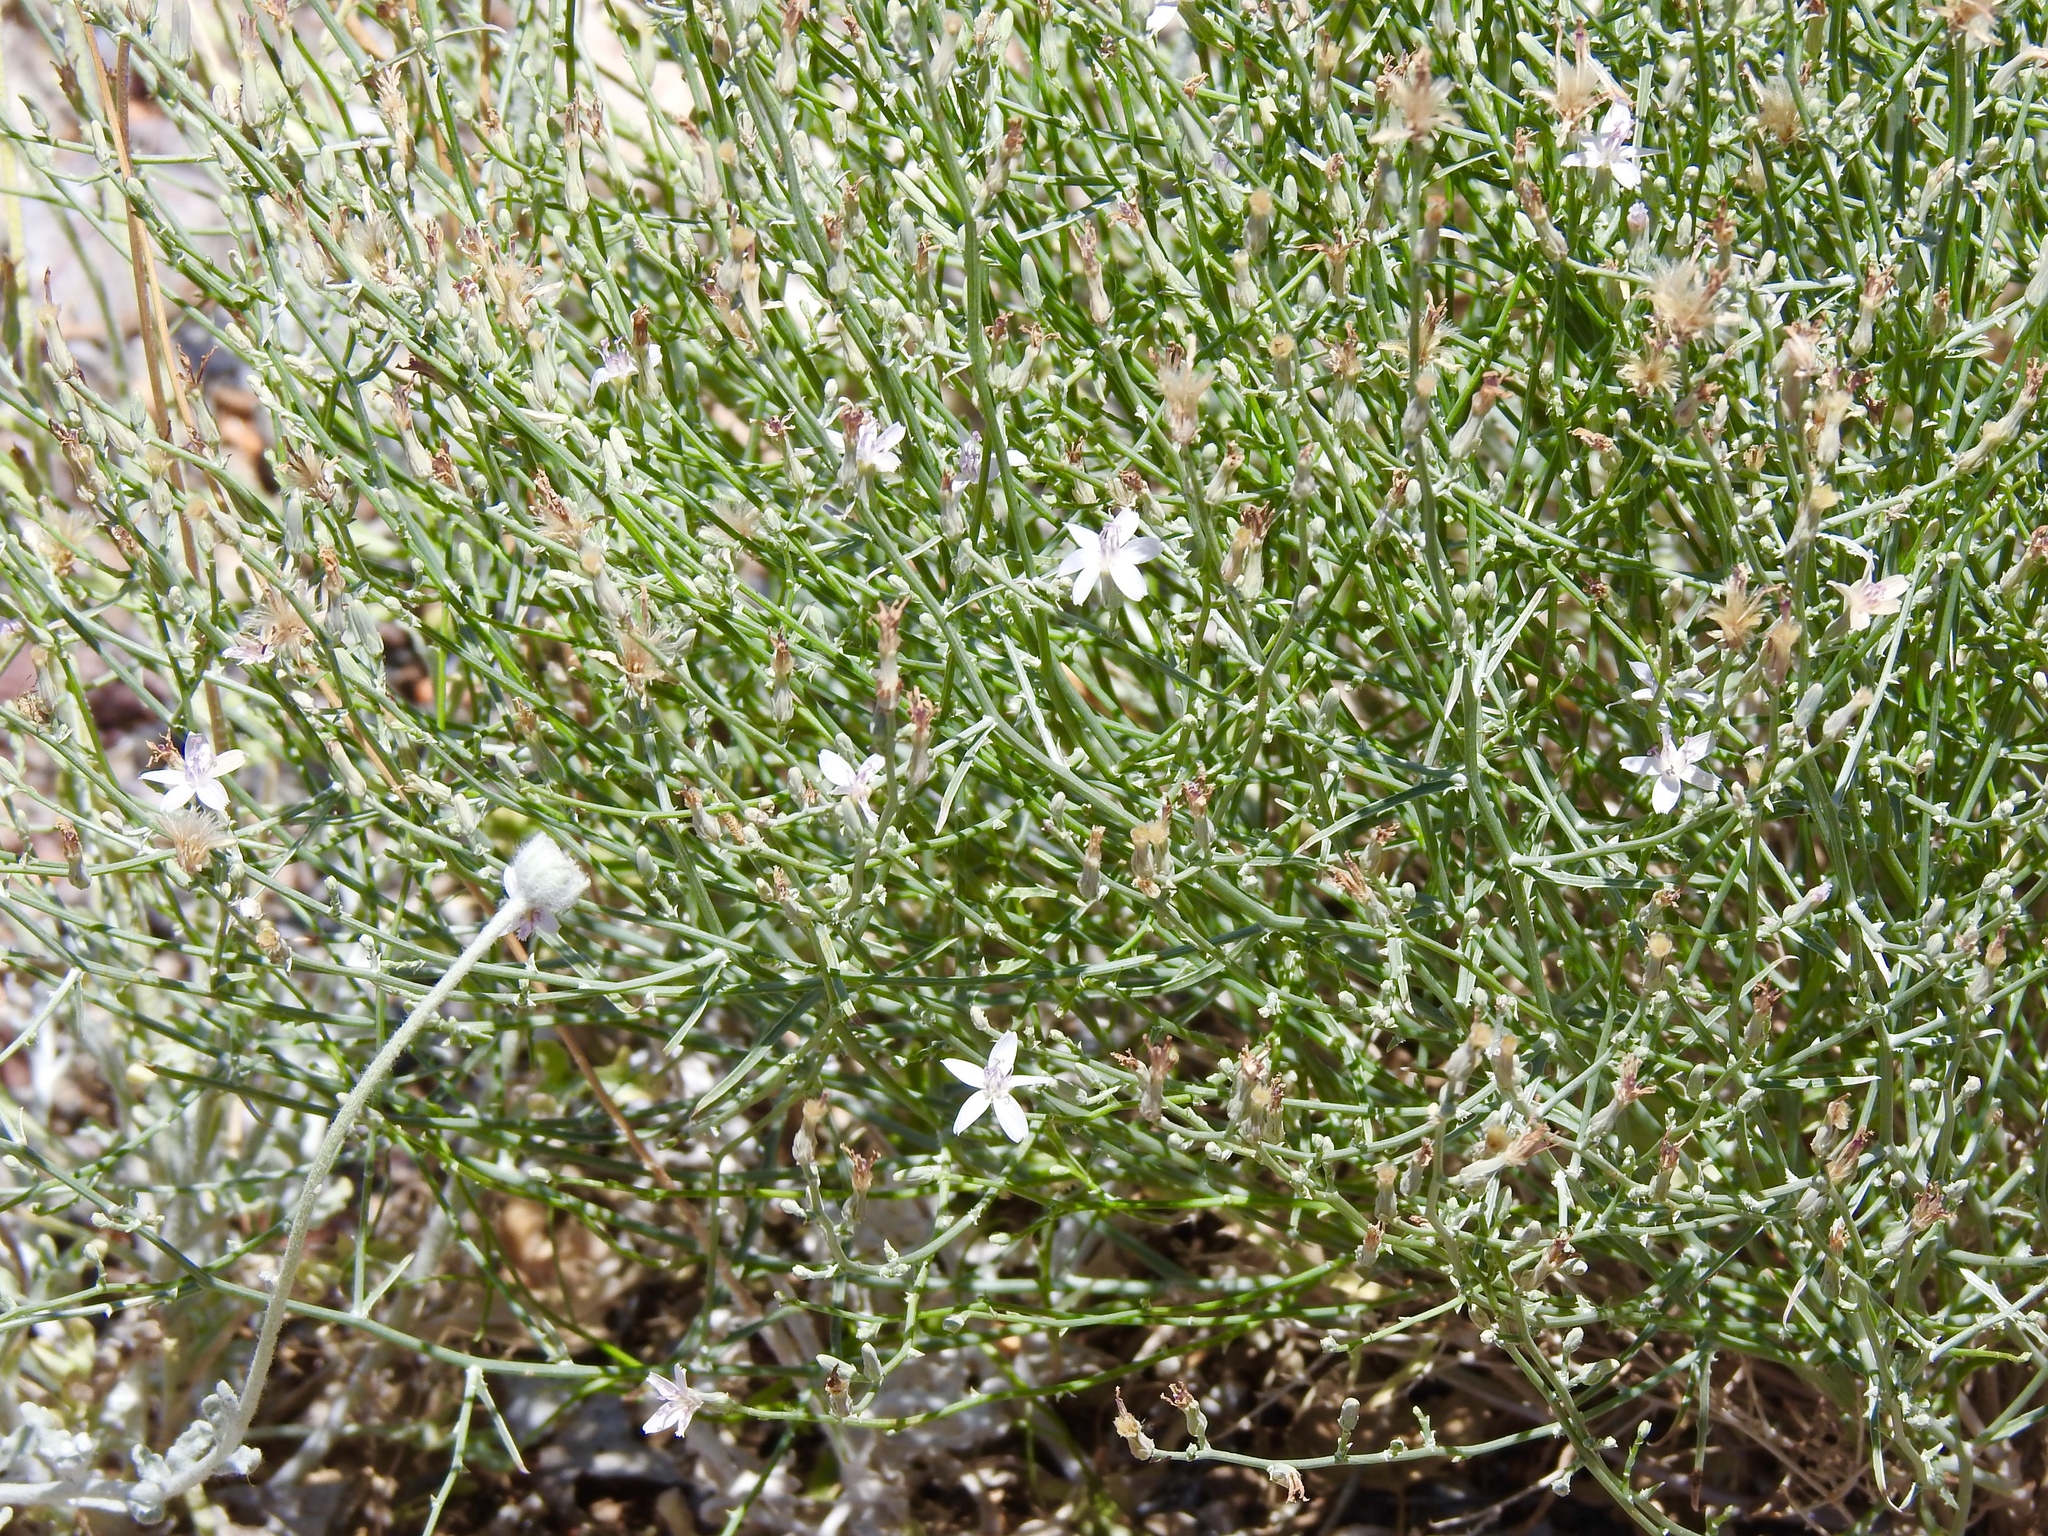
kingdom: Plantae
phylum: Tracheophyta
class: Magnoliopsida
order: Asterales
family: Asteraceae
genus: Stephanomeria
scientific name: Stephanomeria pauciflora
